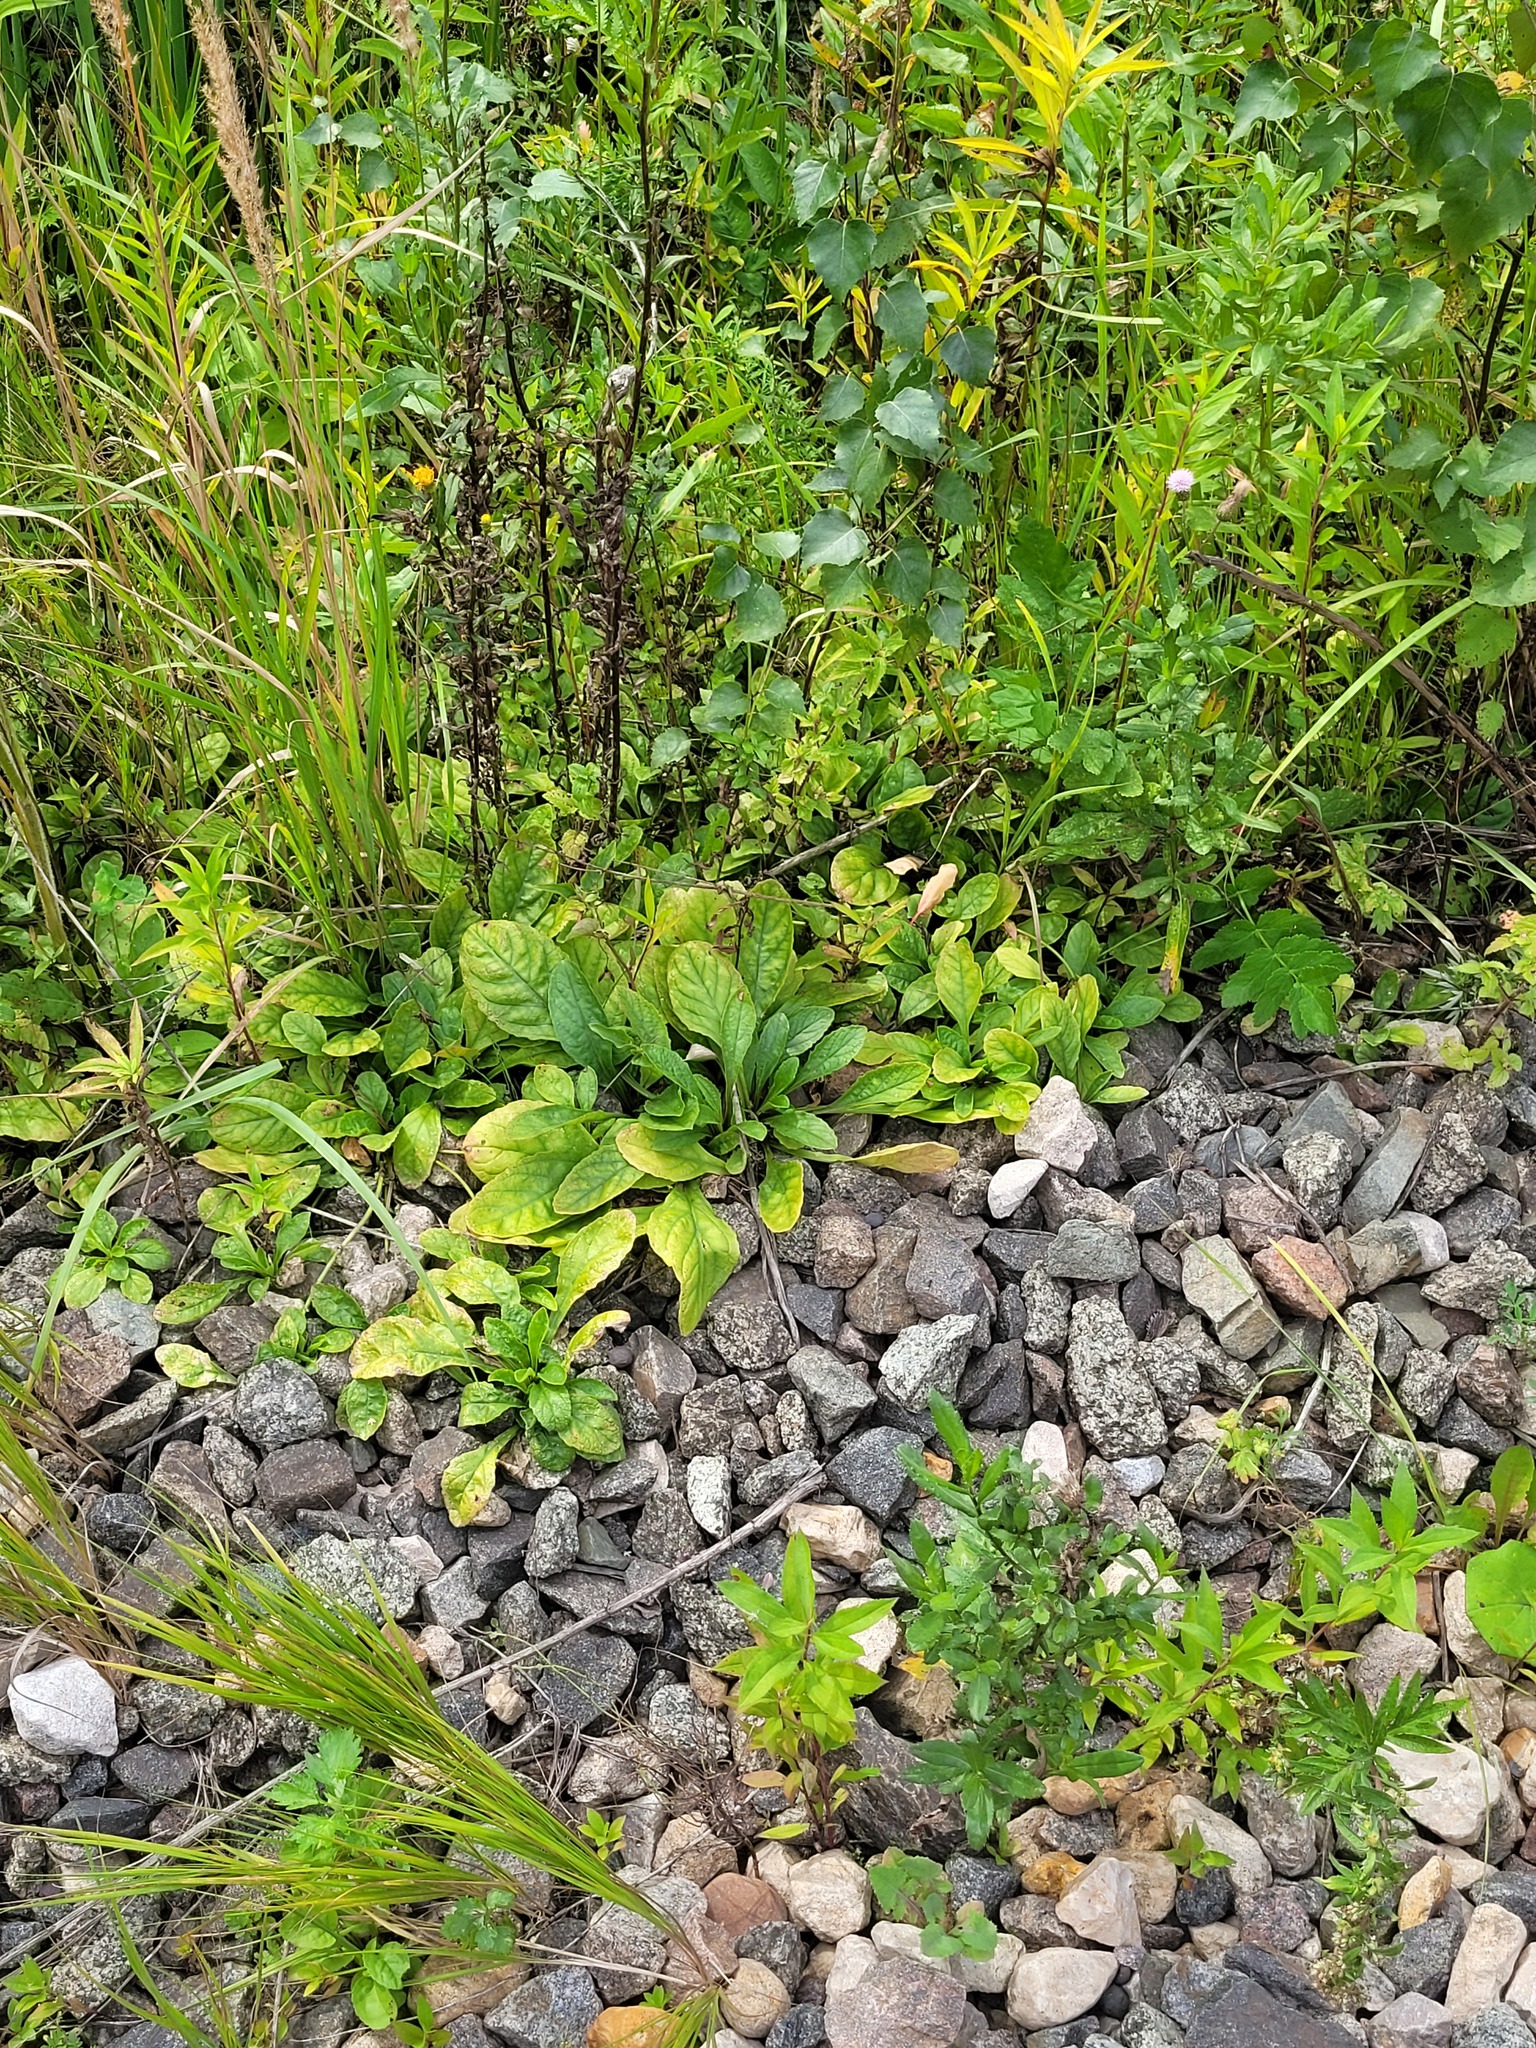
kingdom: Plantae
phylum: Tracheophyta
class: Magnoliopsida
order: Lamiales
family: Lamiaceae
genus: Ajuga
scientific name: Ajuga reptans
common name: Bugle
